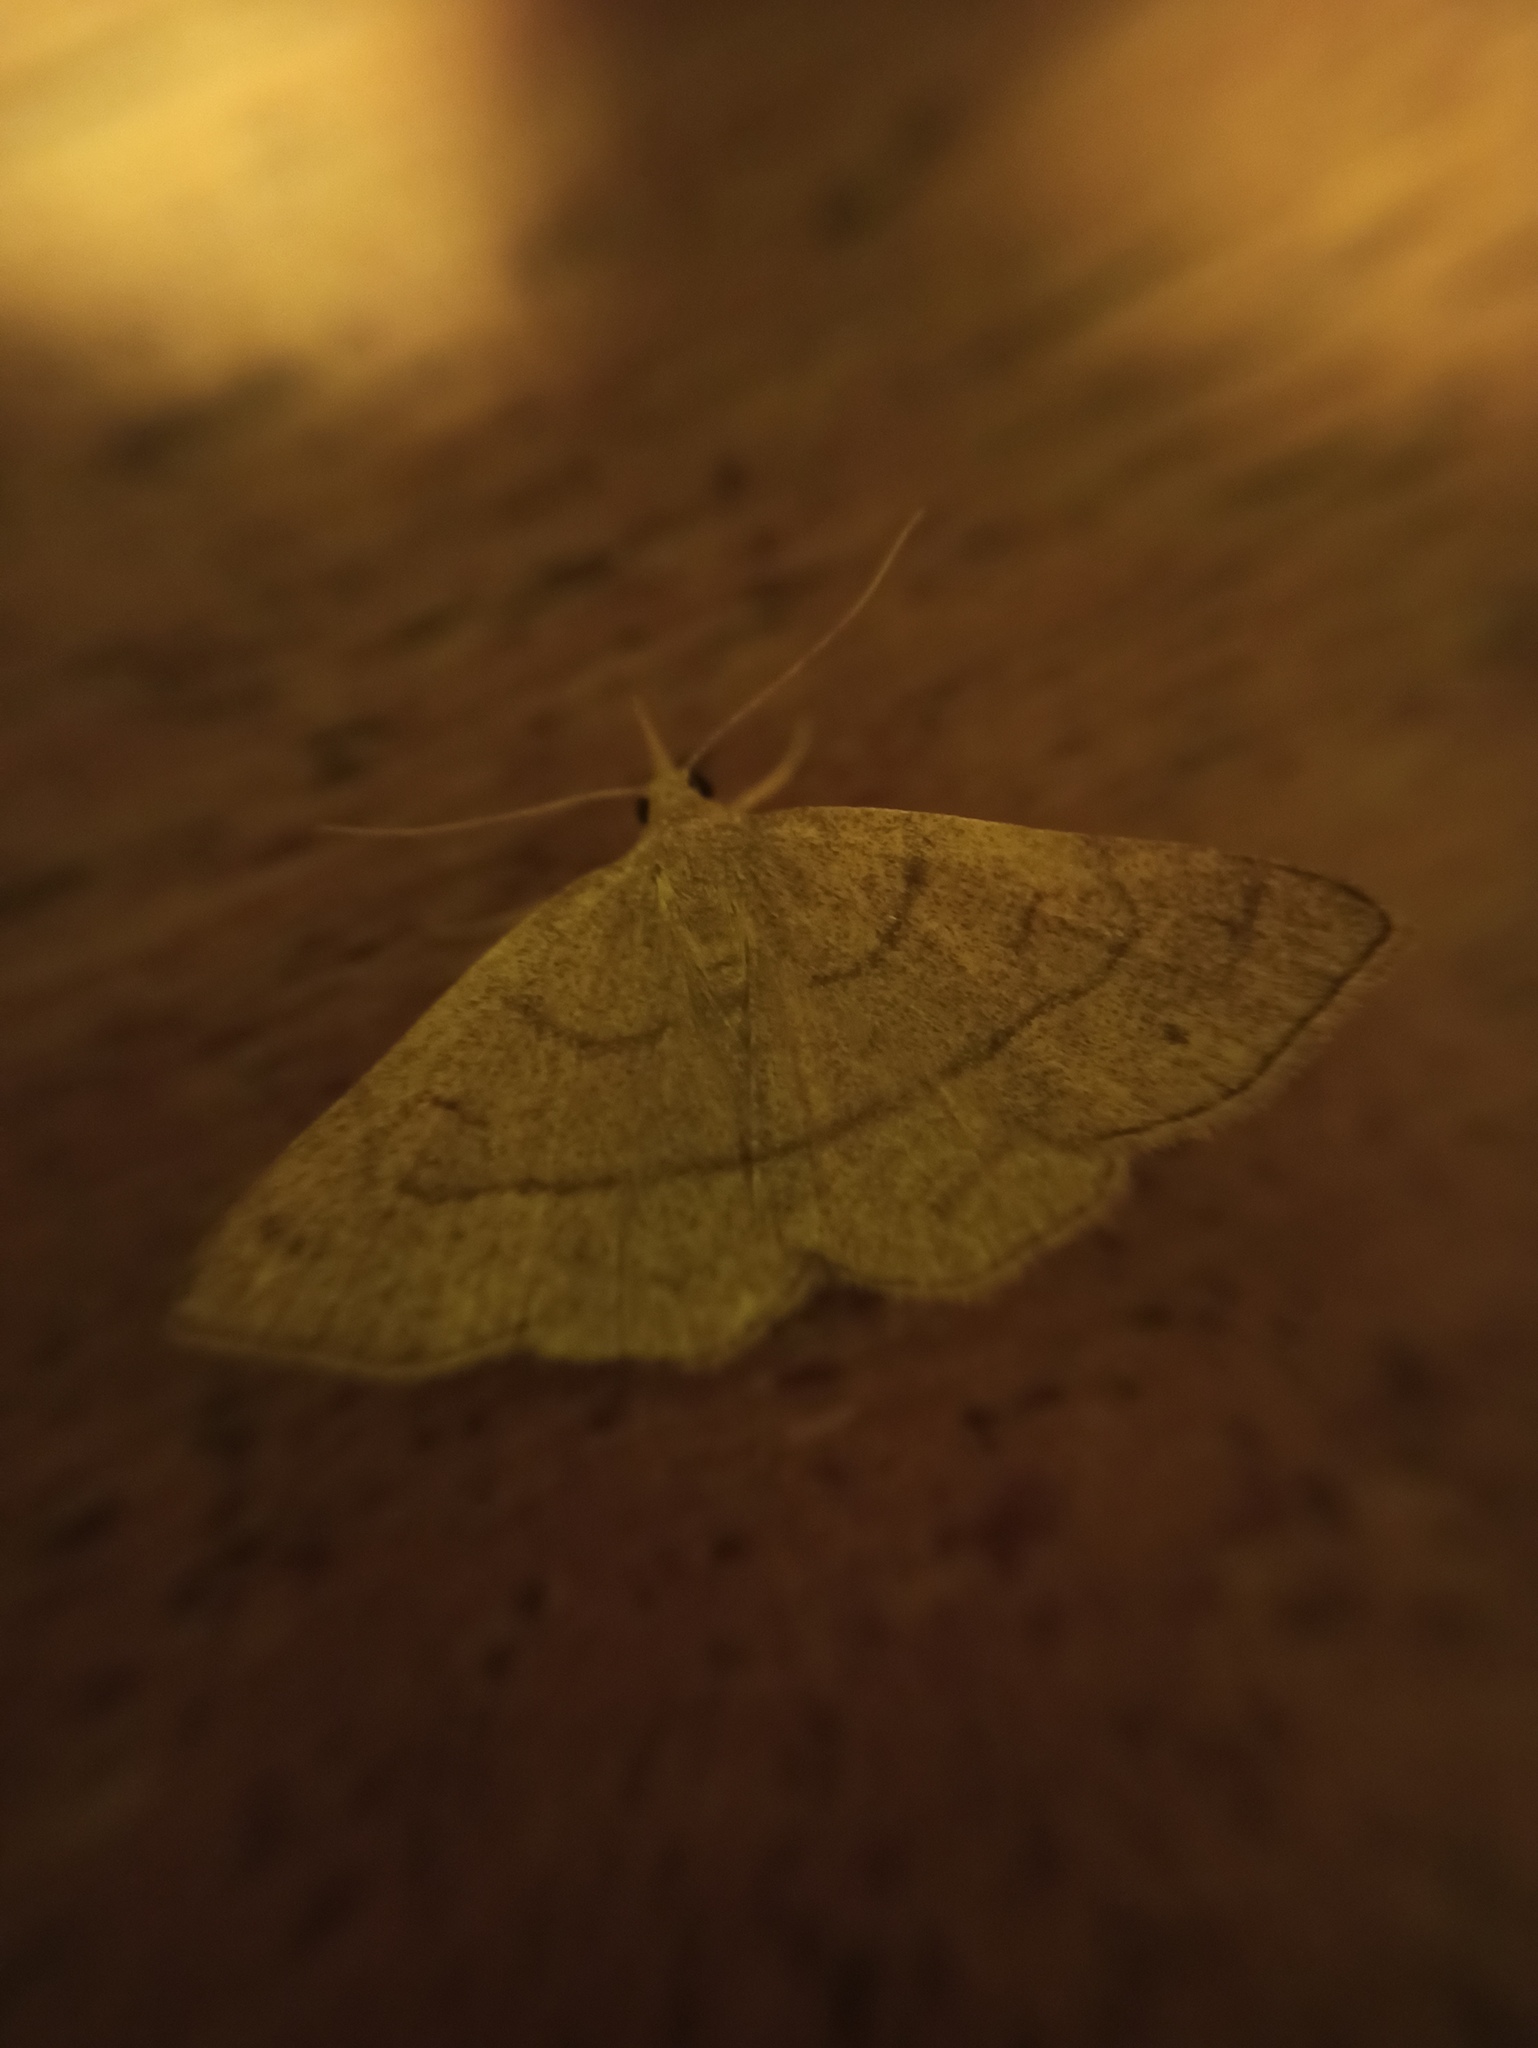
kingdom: Animalia
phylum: Arthropoda
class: Insecta
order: Lepidoptera
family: Erebidae
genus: Paracolax
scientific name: Paracolax tristalis
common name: Clay fan-foot
